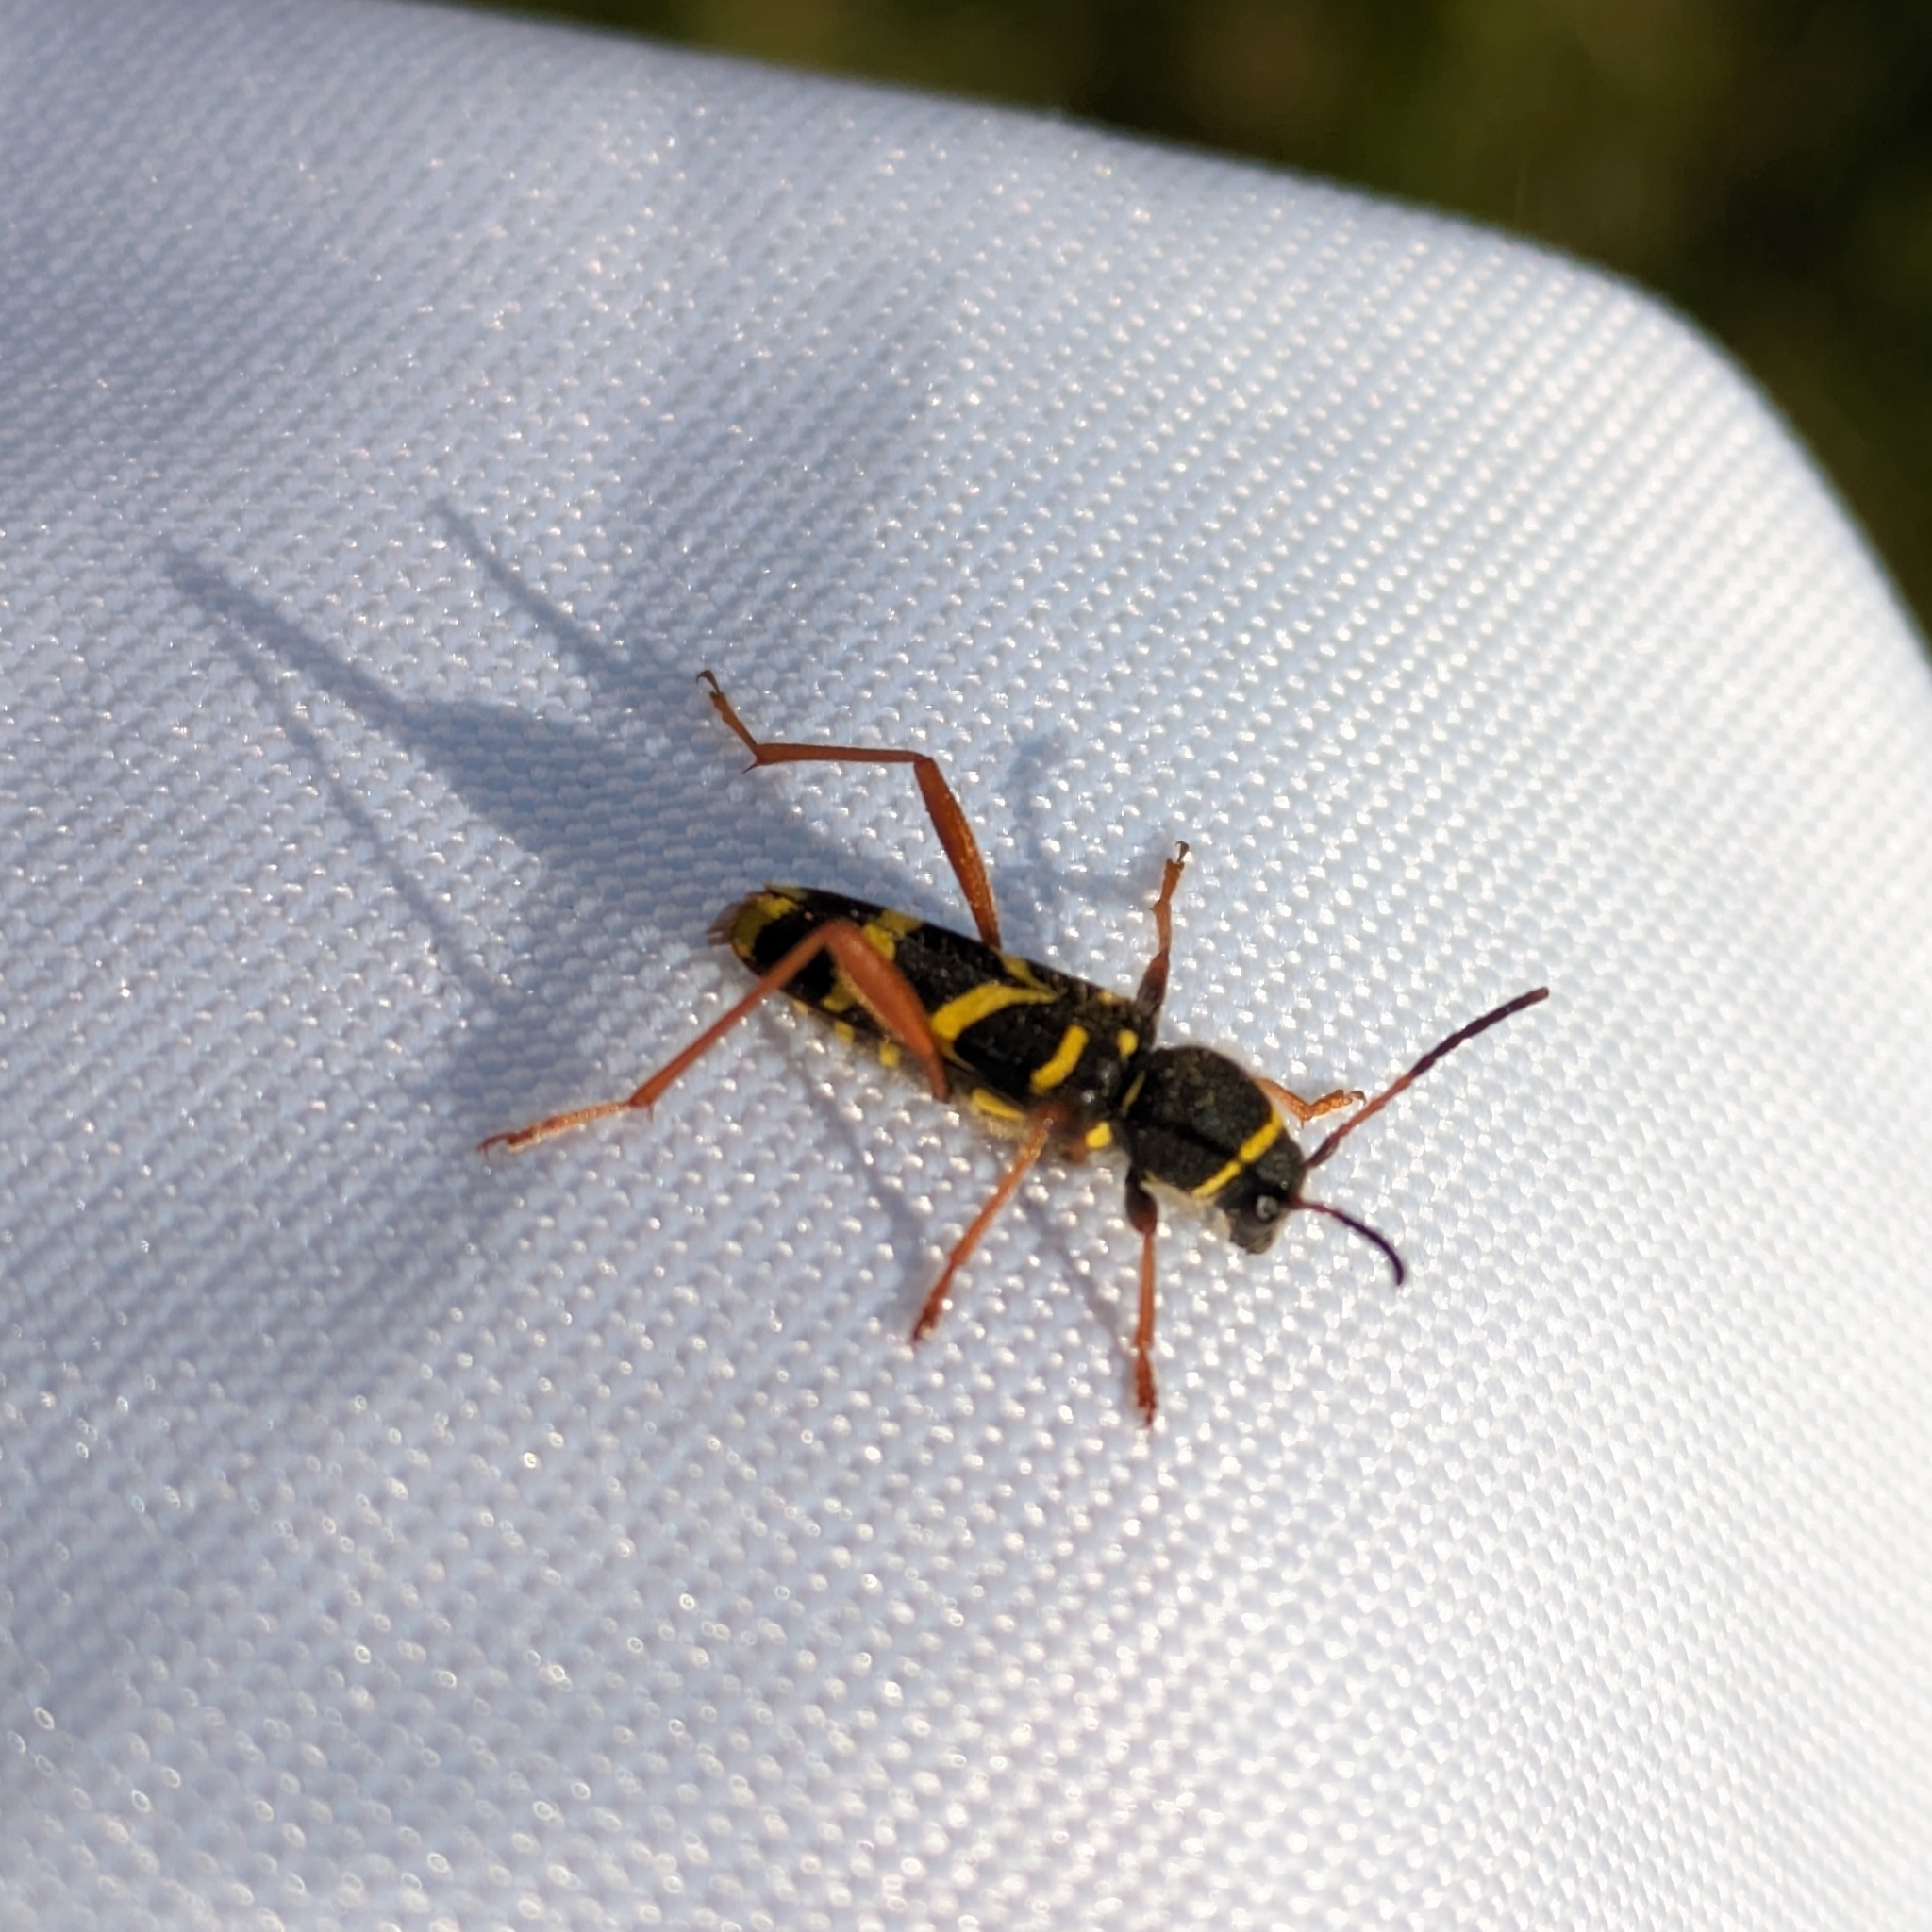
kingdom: Animalia
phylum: Arthropoda
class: Insecta
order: Coleoptera
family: Cerambycidae
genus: Clytus
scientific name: Clytus arietis
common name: Wasp beetle
